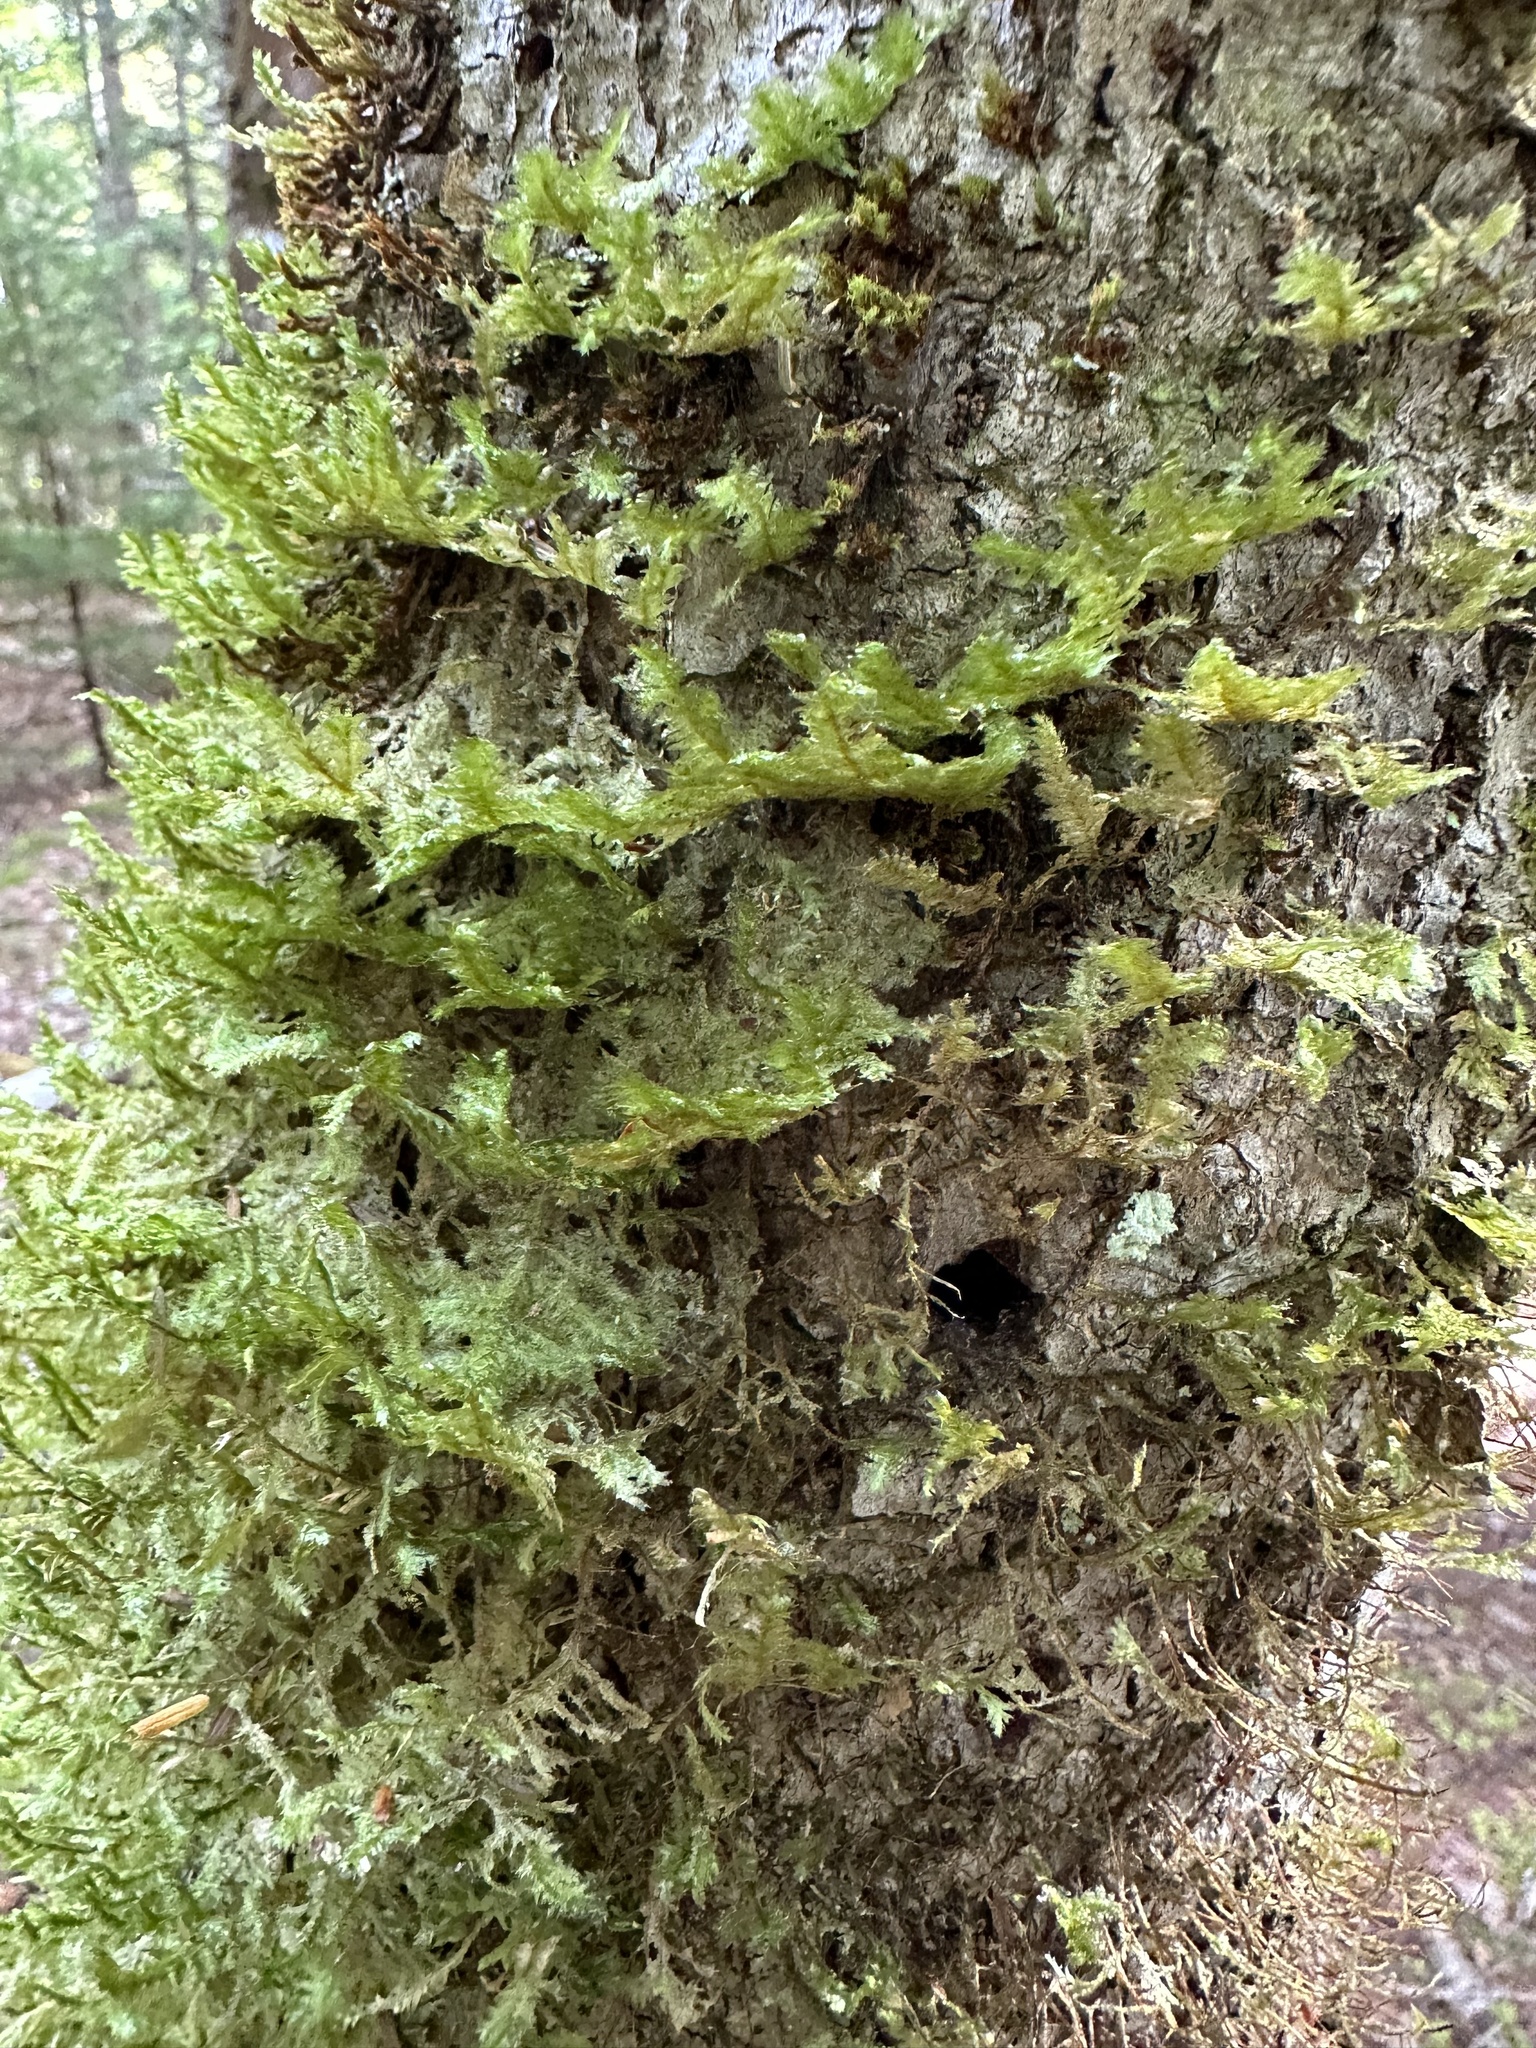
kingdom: Plantae
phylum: Bryophyta
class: Bryopsida
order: Hypnales
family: Neckeraceae
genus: Neckera
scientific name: Neckera pennata
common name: Feathery neckera
